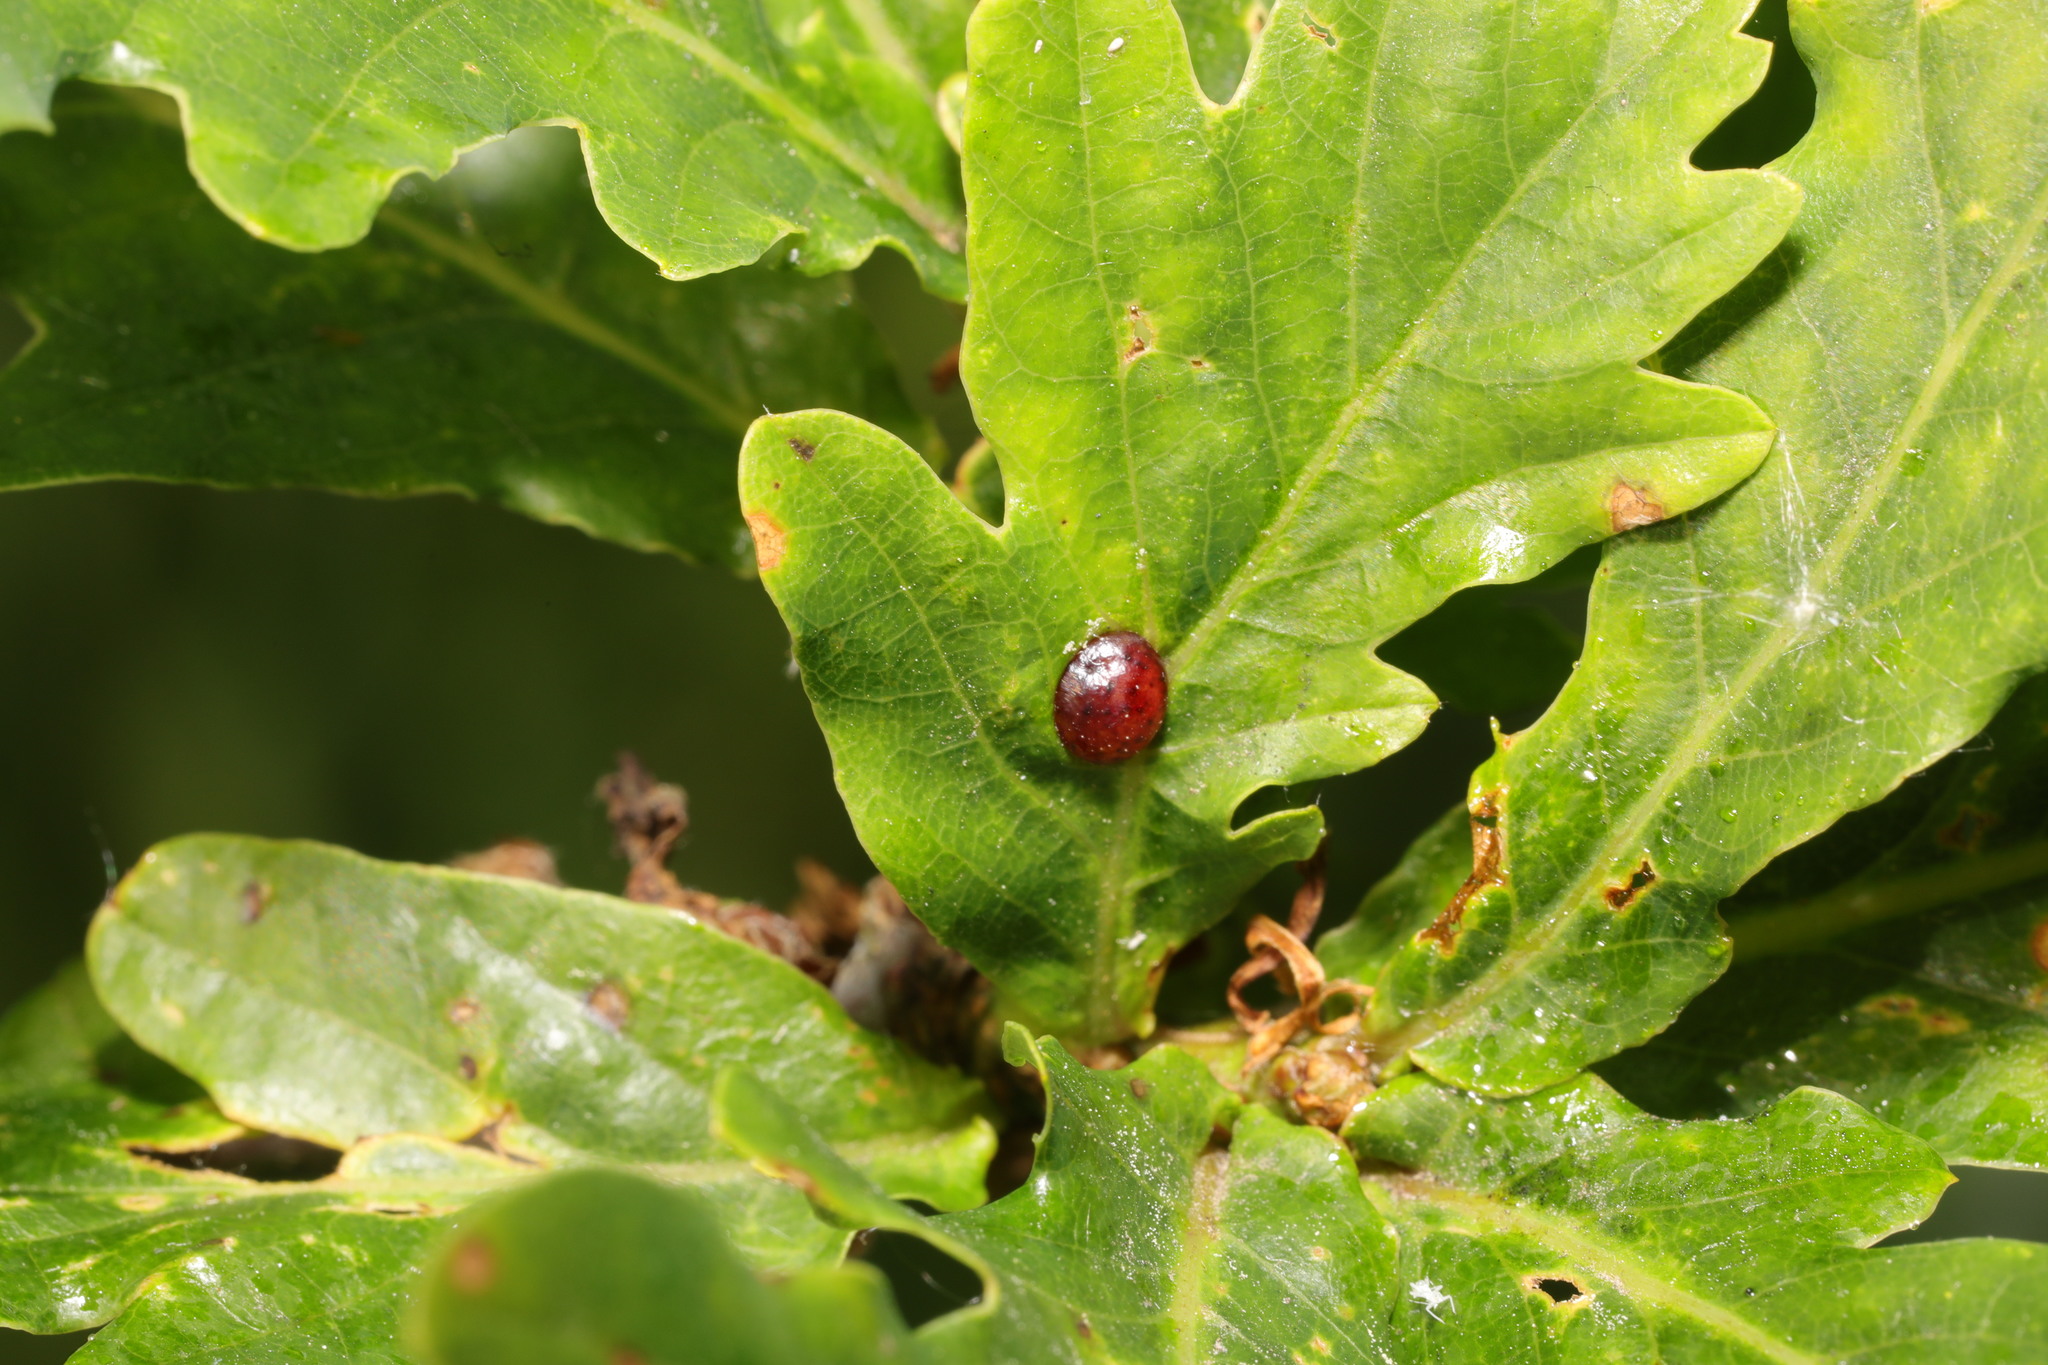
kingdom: Animalia
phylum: Arthropoda
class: Insecta
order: Hymenoptera
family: Cynipidae
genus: Neuroterus
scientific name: Neuroterus quercusbaccarum
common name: Common spangle gall
